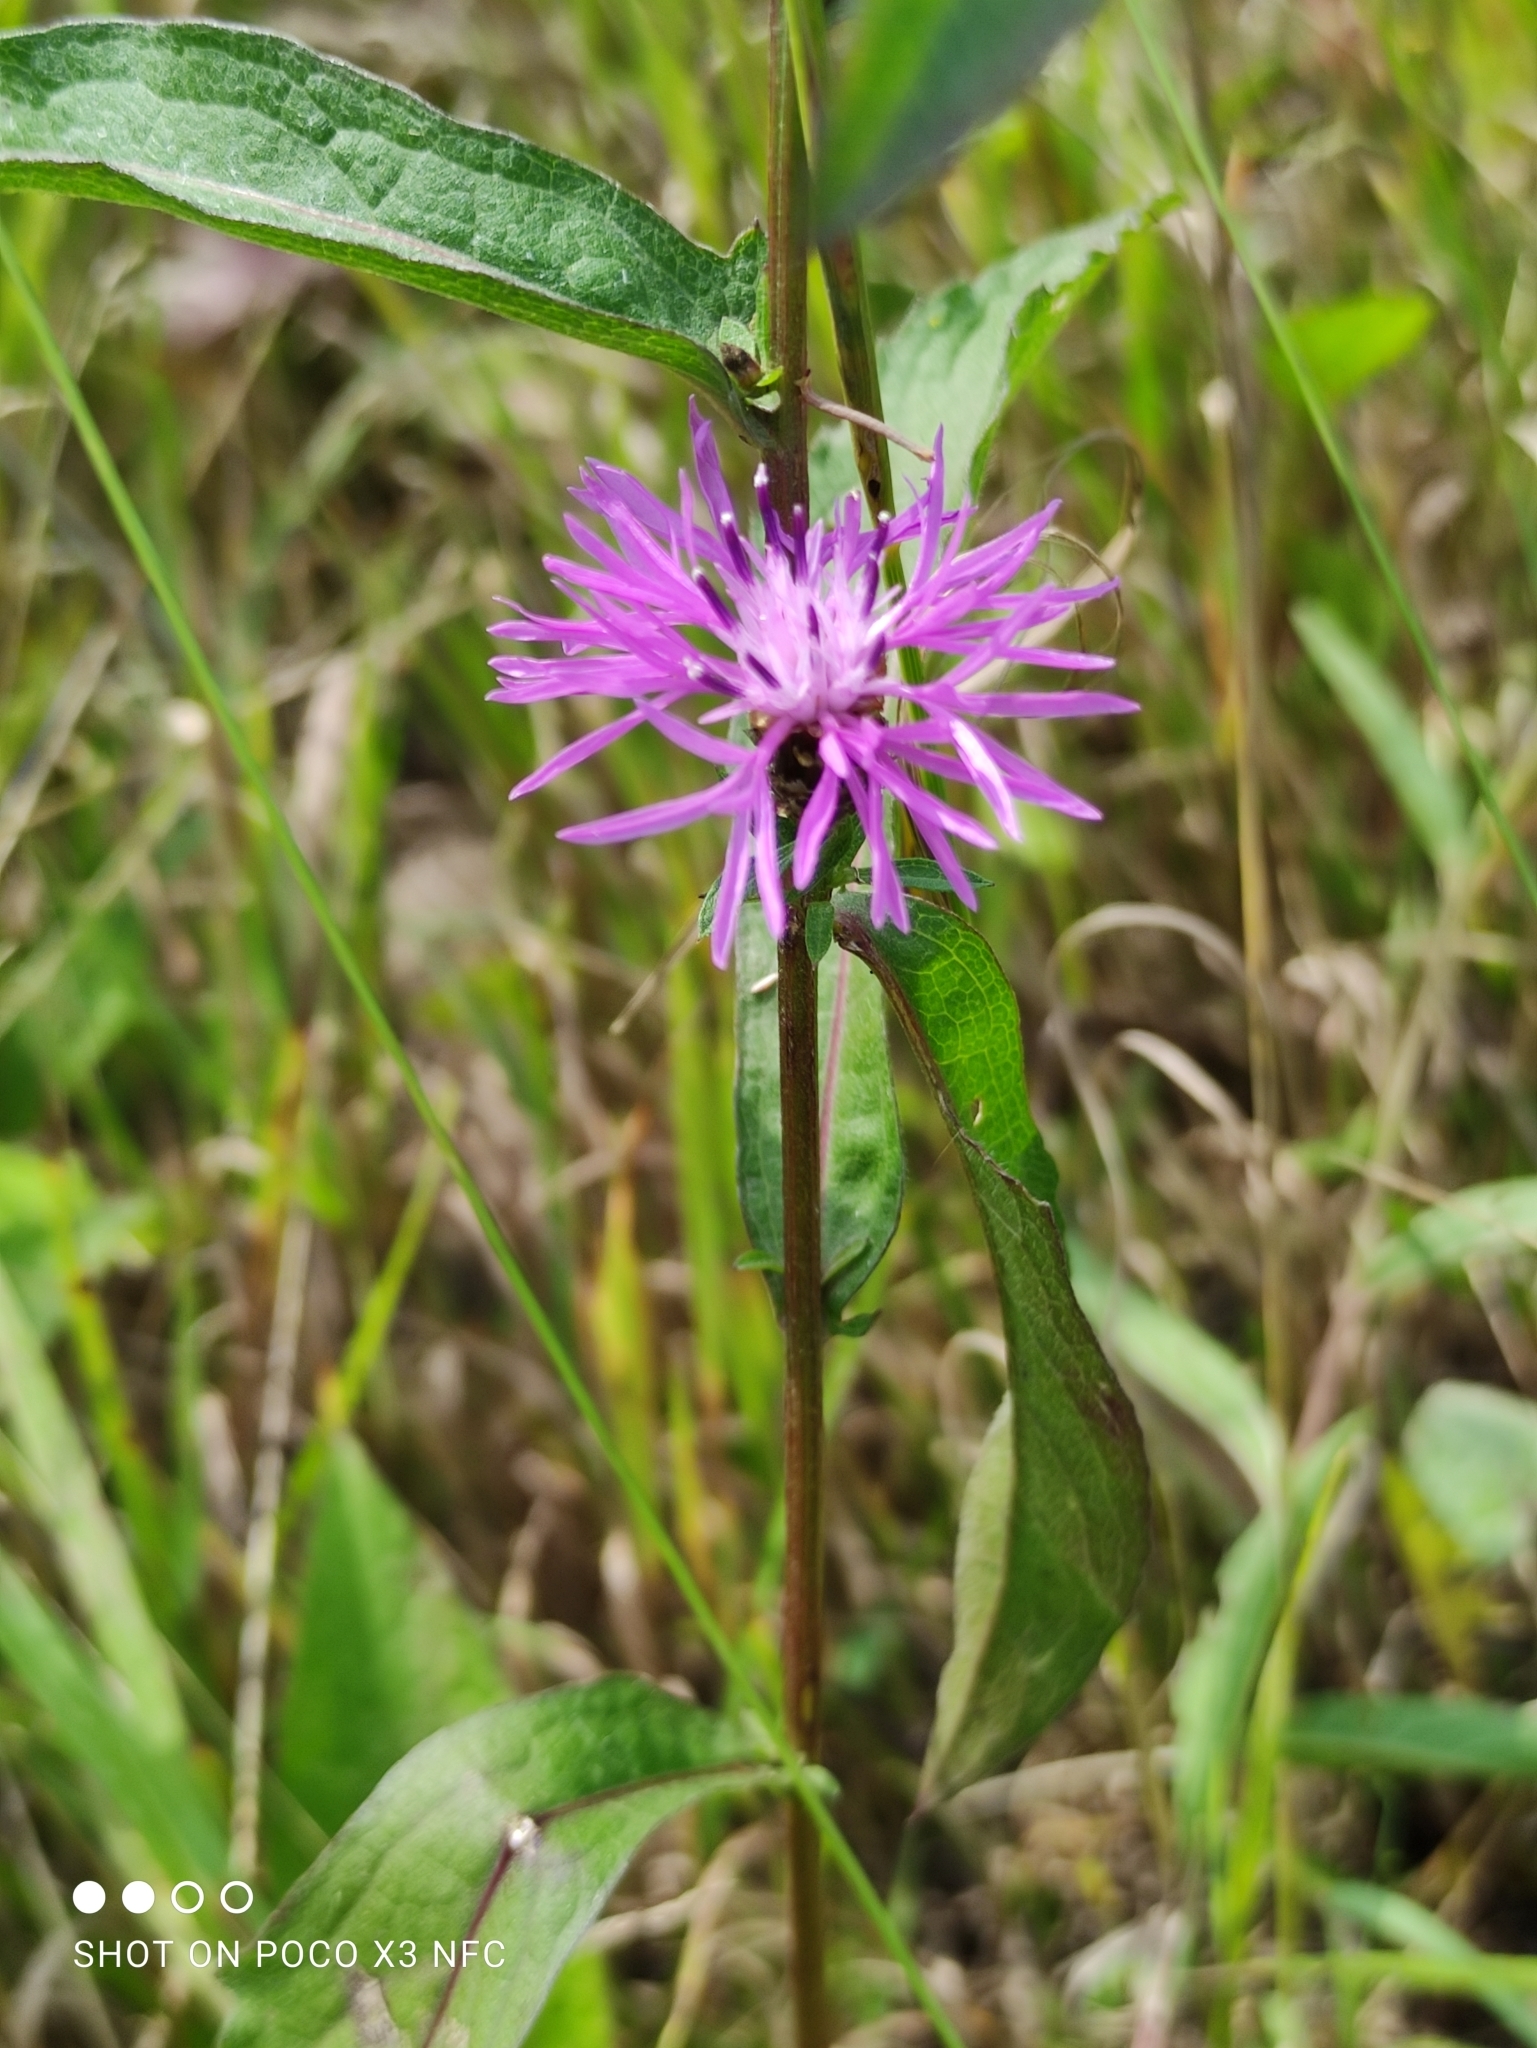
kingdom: Plantae
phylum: Tracheophyta
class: Magnoliopsida
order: Asterales
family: Asteraceae
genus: Centaurea
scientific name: Centaurea jacea
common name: Brown knapweed
